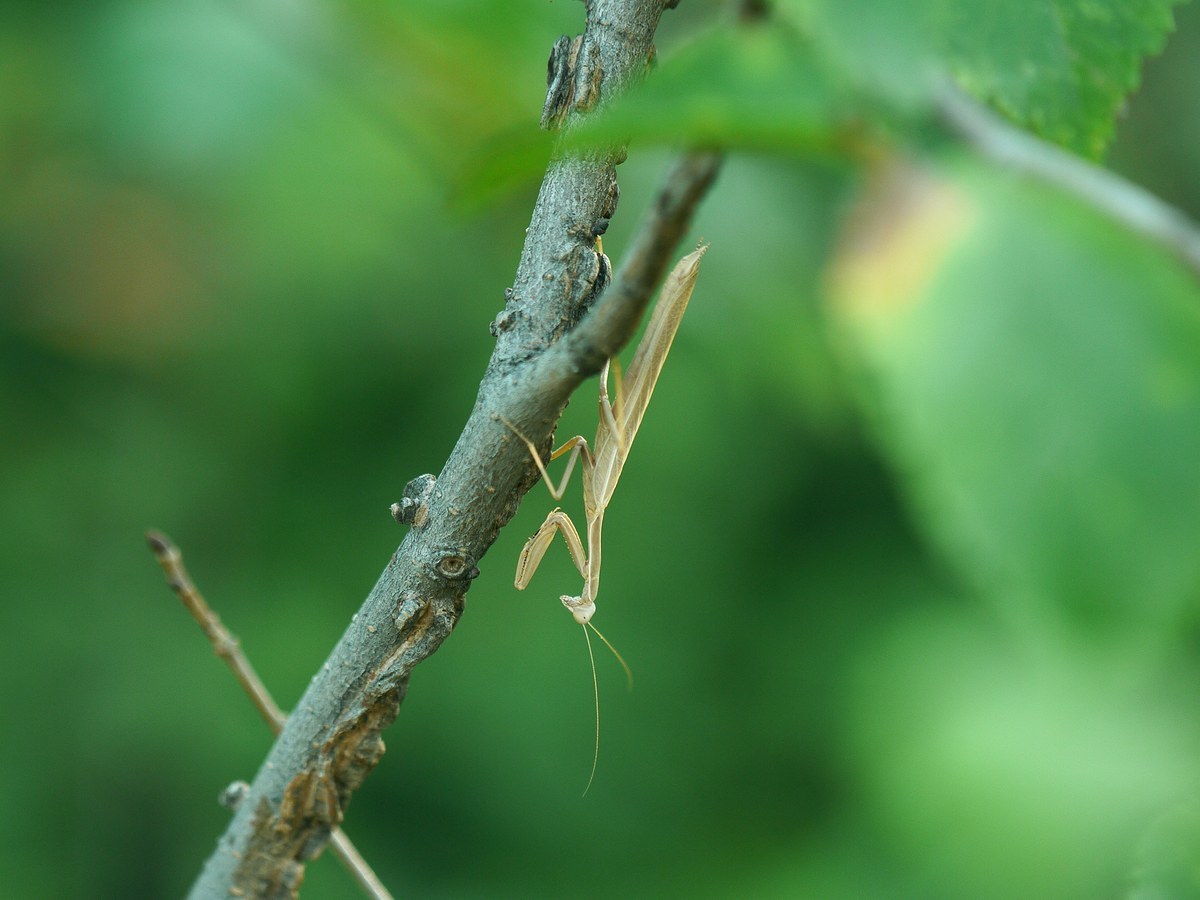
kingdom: Animalia
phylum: Arthropoda
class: Insecta
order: Mantodea
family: Eremiaphilidae
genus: Iris
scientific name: Iris polystictica
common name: Dot-winged mantis
